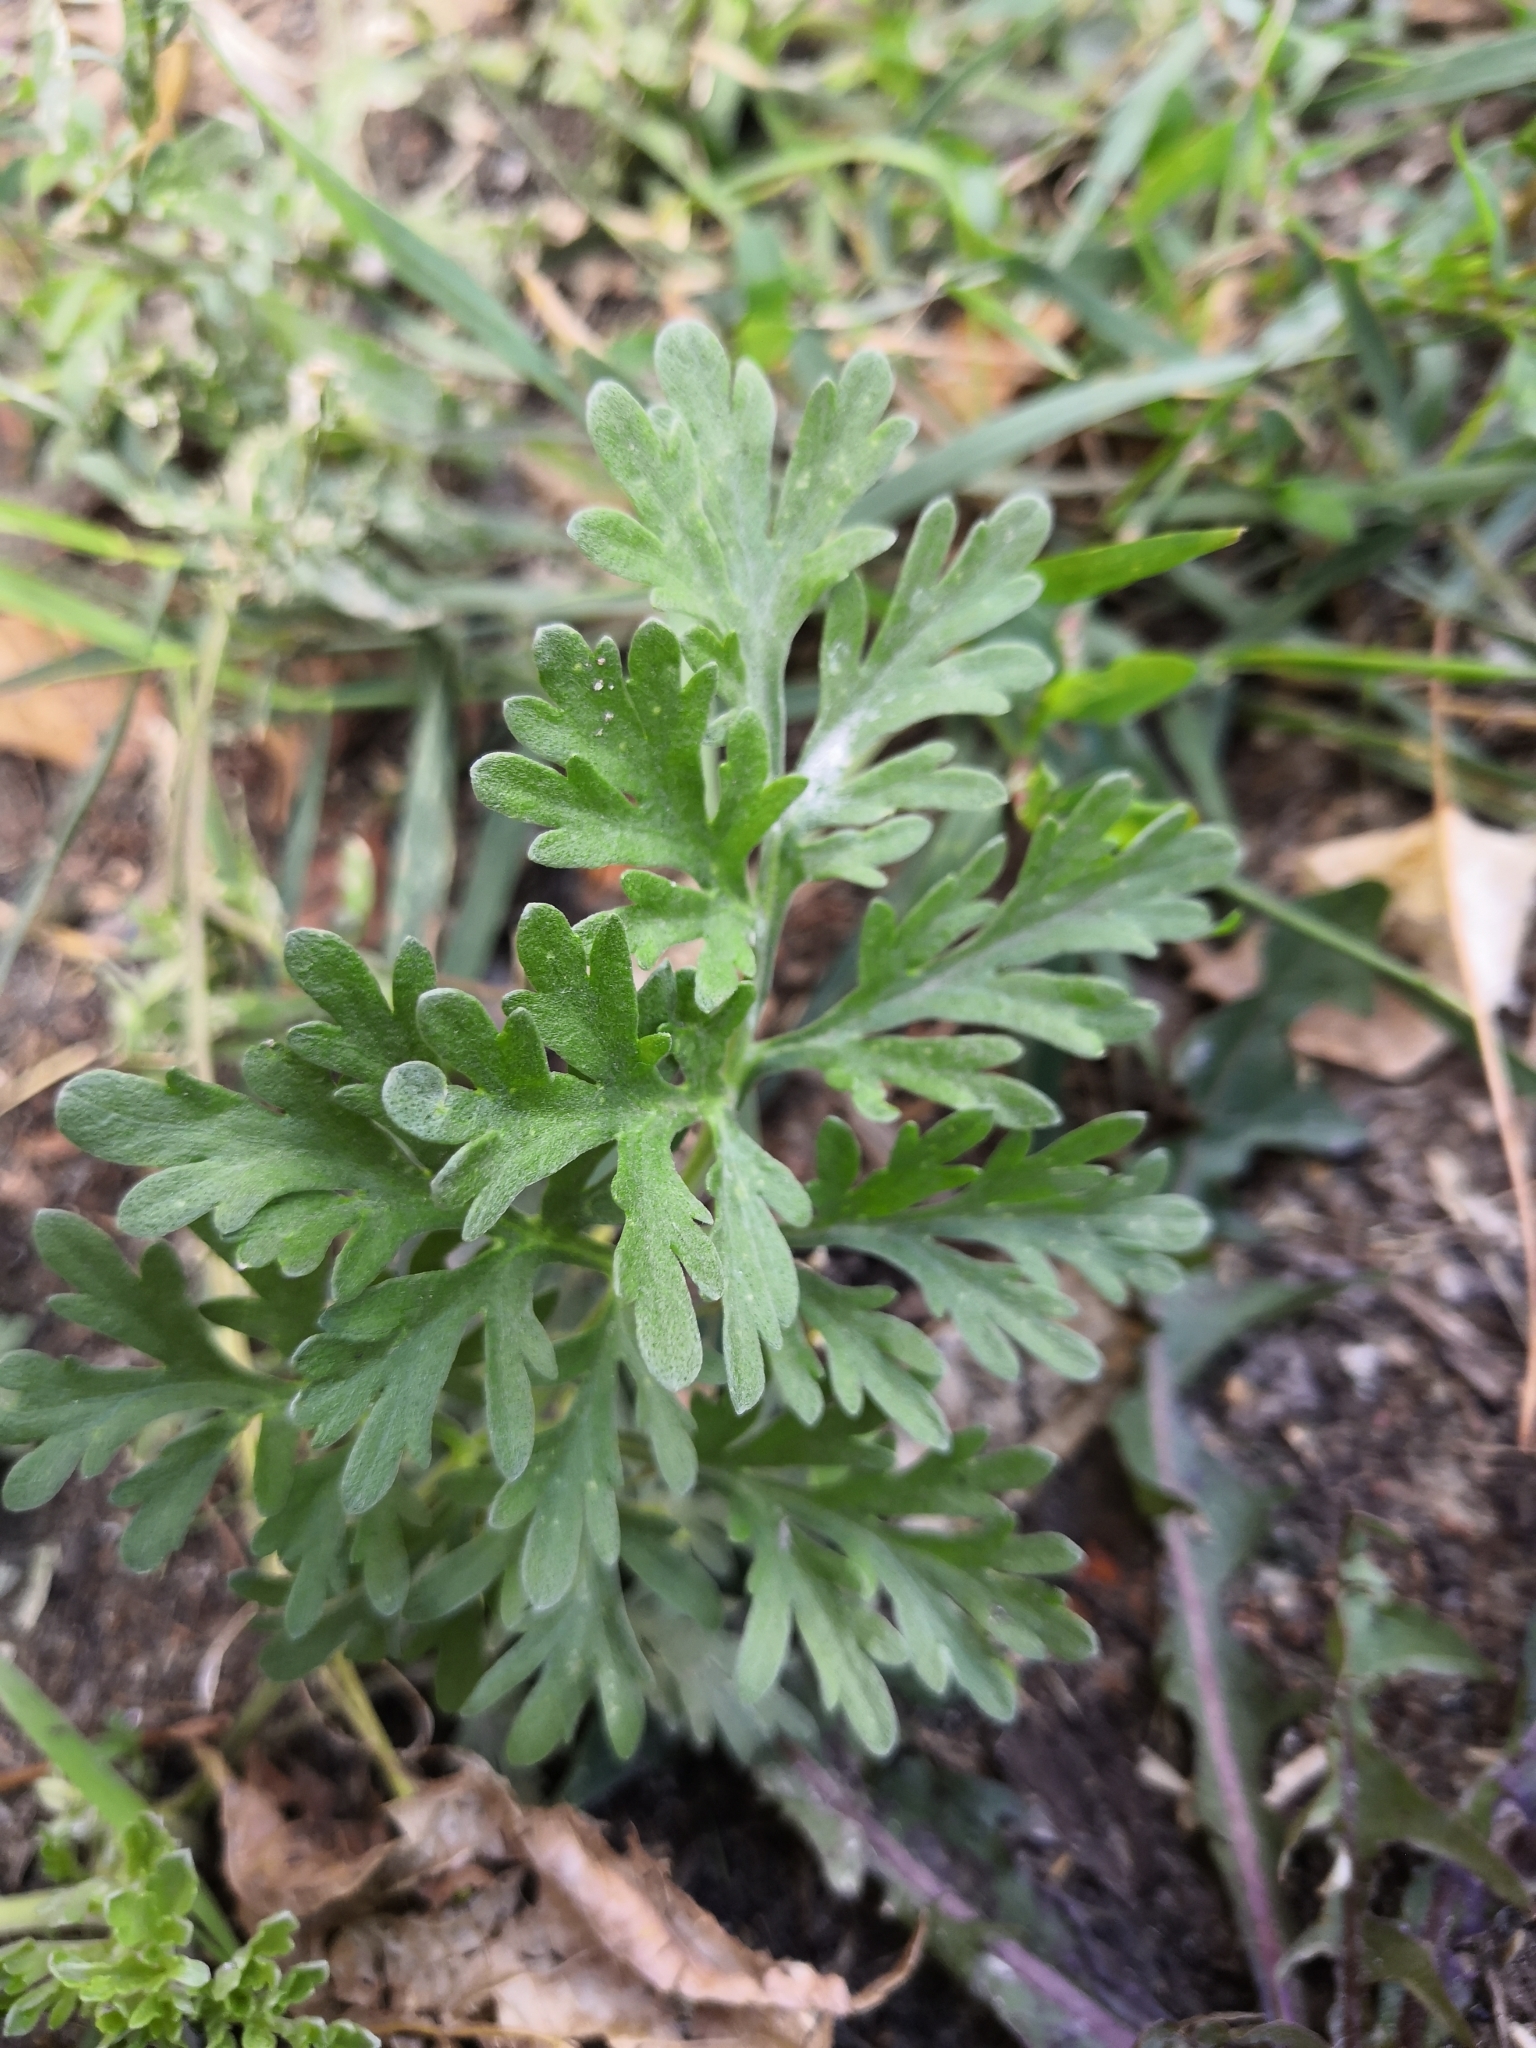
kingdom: Plantae
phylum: Tracheophyta
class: Magnoliopsida
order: Asterales
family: Asteraceae
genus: Artemisia
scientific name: Artemisia absinthium
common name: Wormwood
